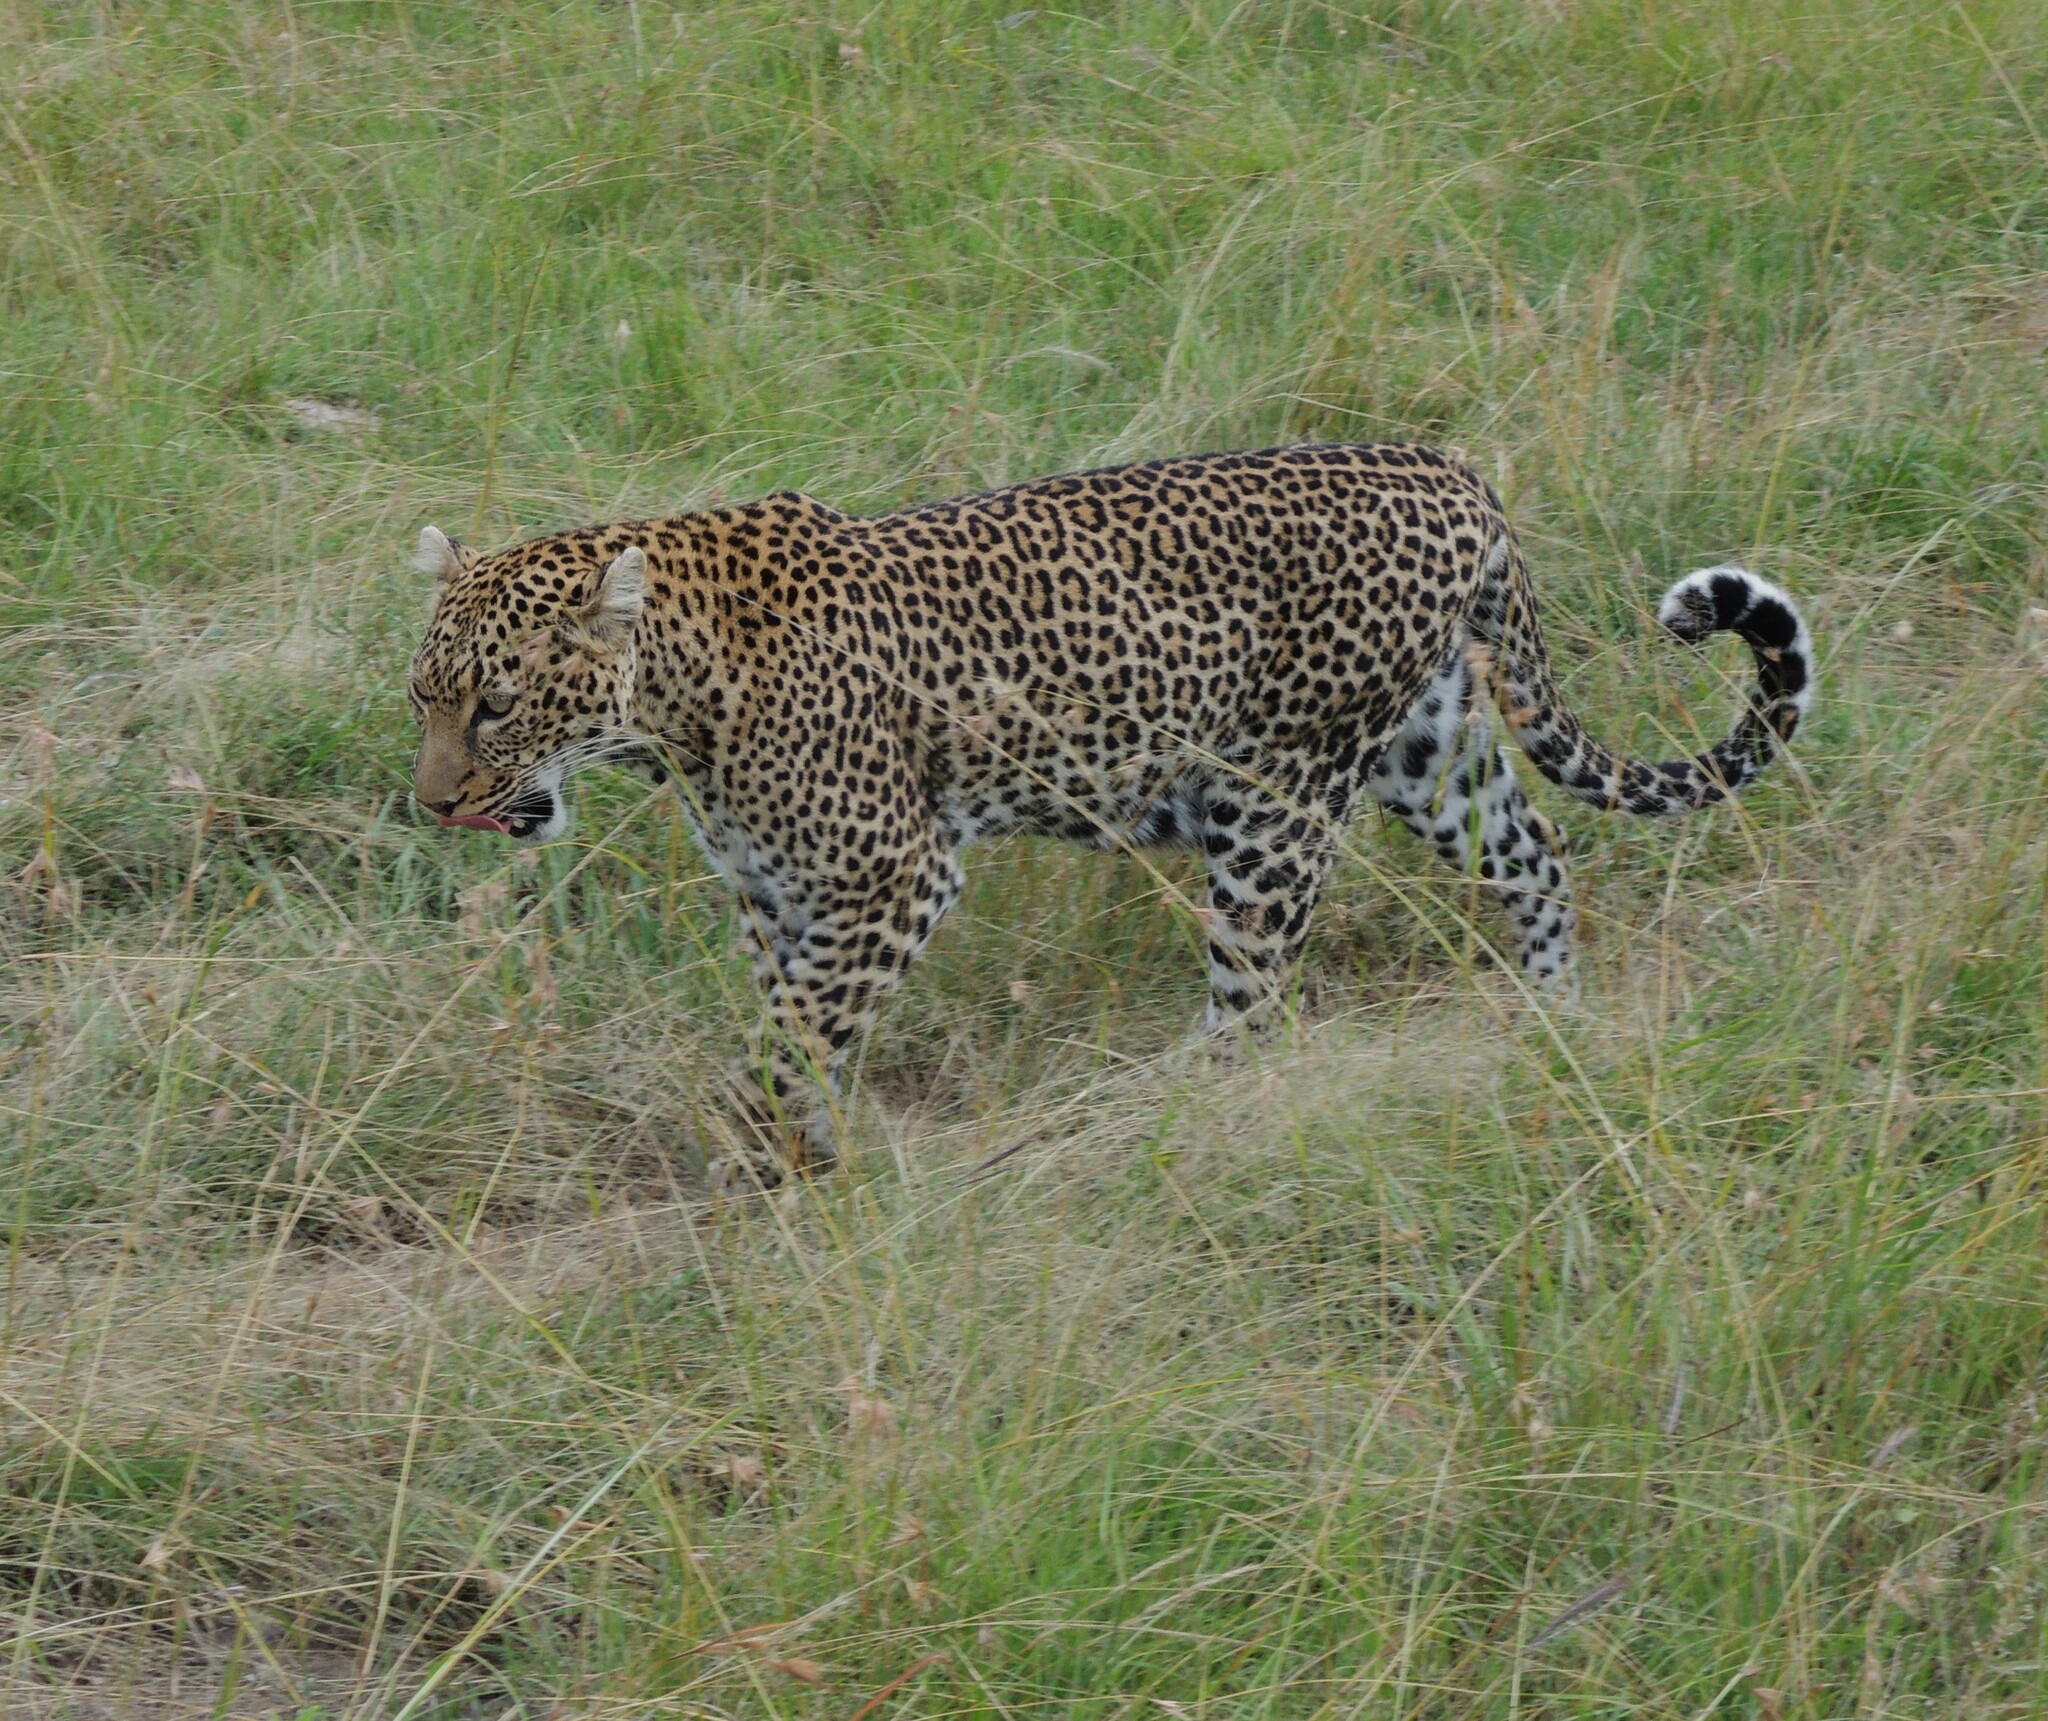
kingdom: Animalia
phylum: Chordata
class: Mammalia
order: Carnivora
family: Felidae
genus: Panthera
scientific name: Panthera pardus
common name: Leopard
